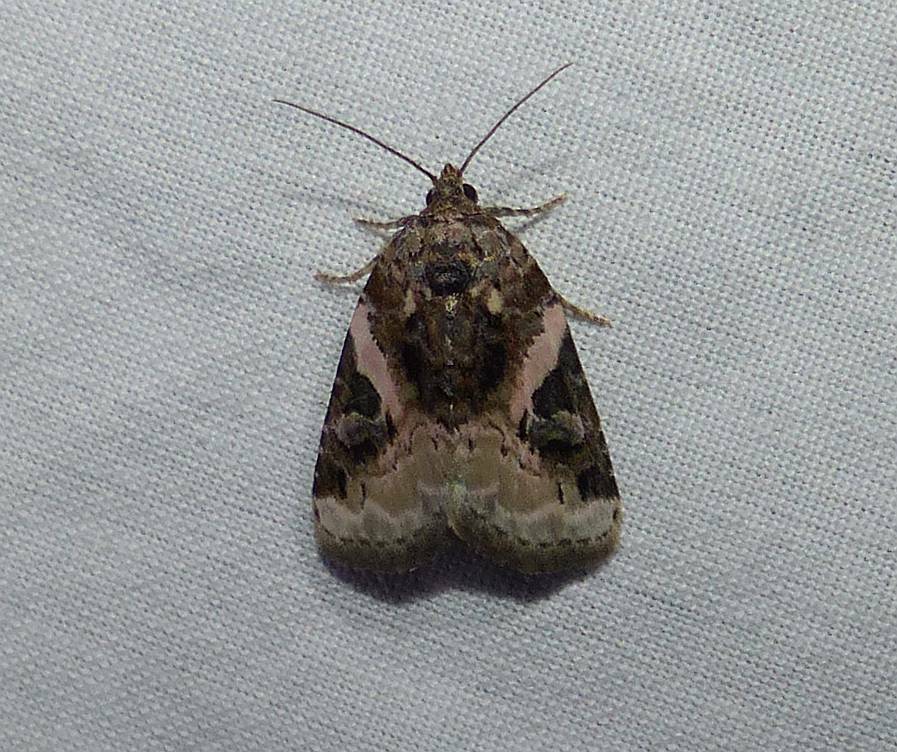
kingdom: Animalia
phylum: Arthropoda
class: Insecta
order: Lepidoptera
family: Noctuidae
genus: Pseudeustrotia
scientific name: Pseudeustrotia carneola
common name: Pink-barred lithacodia moth
